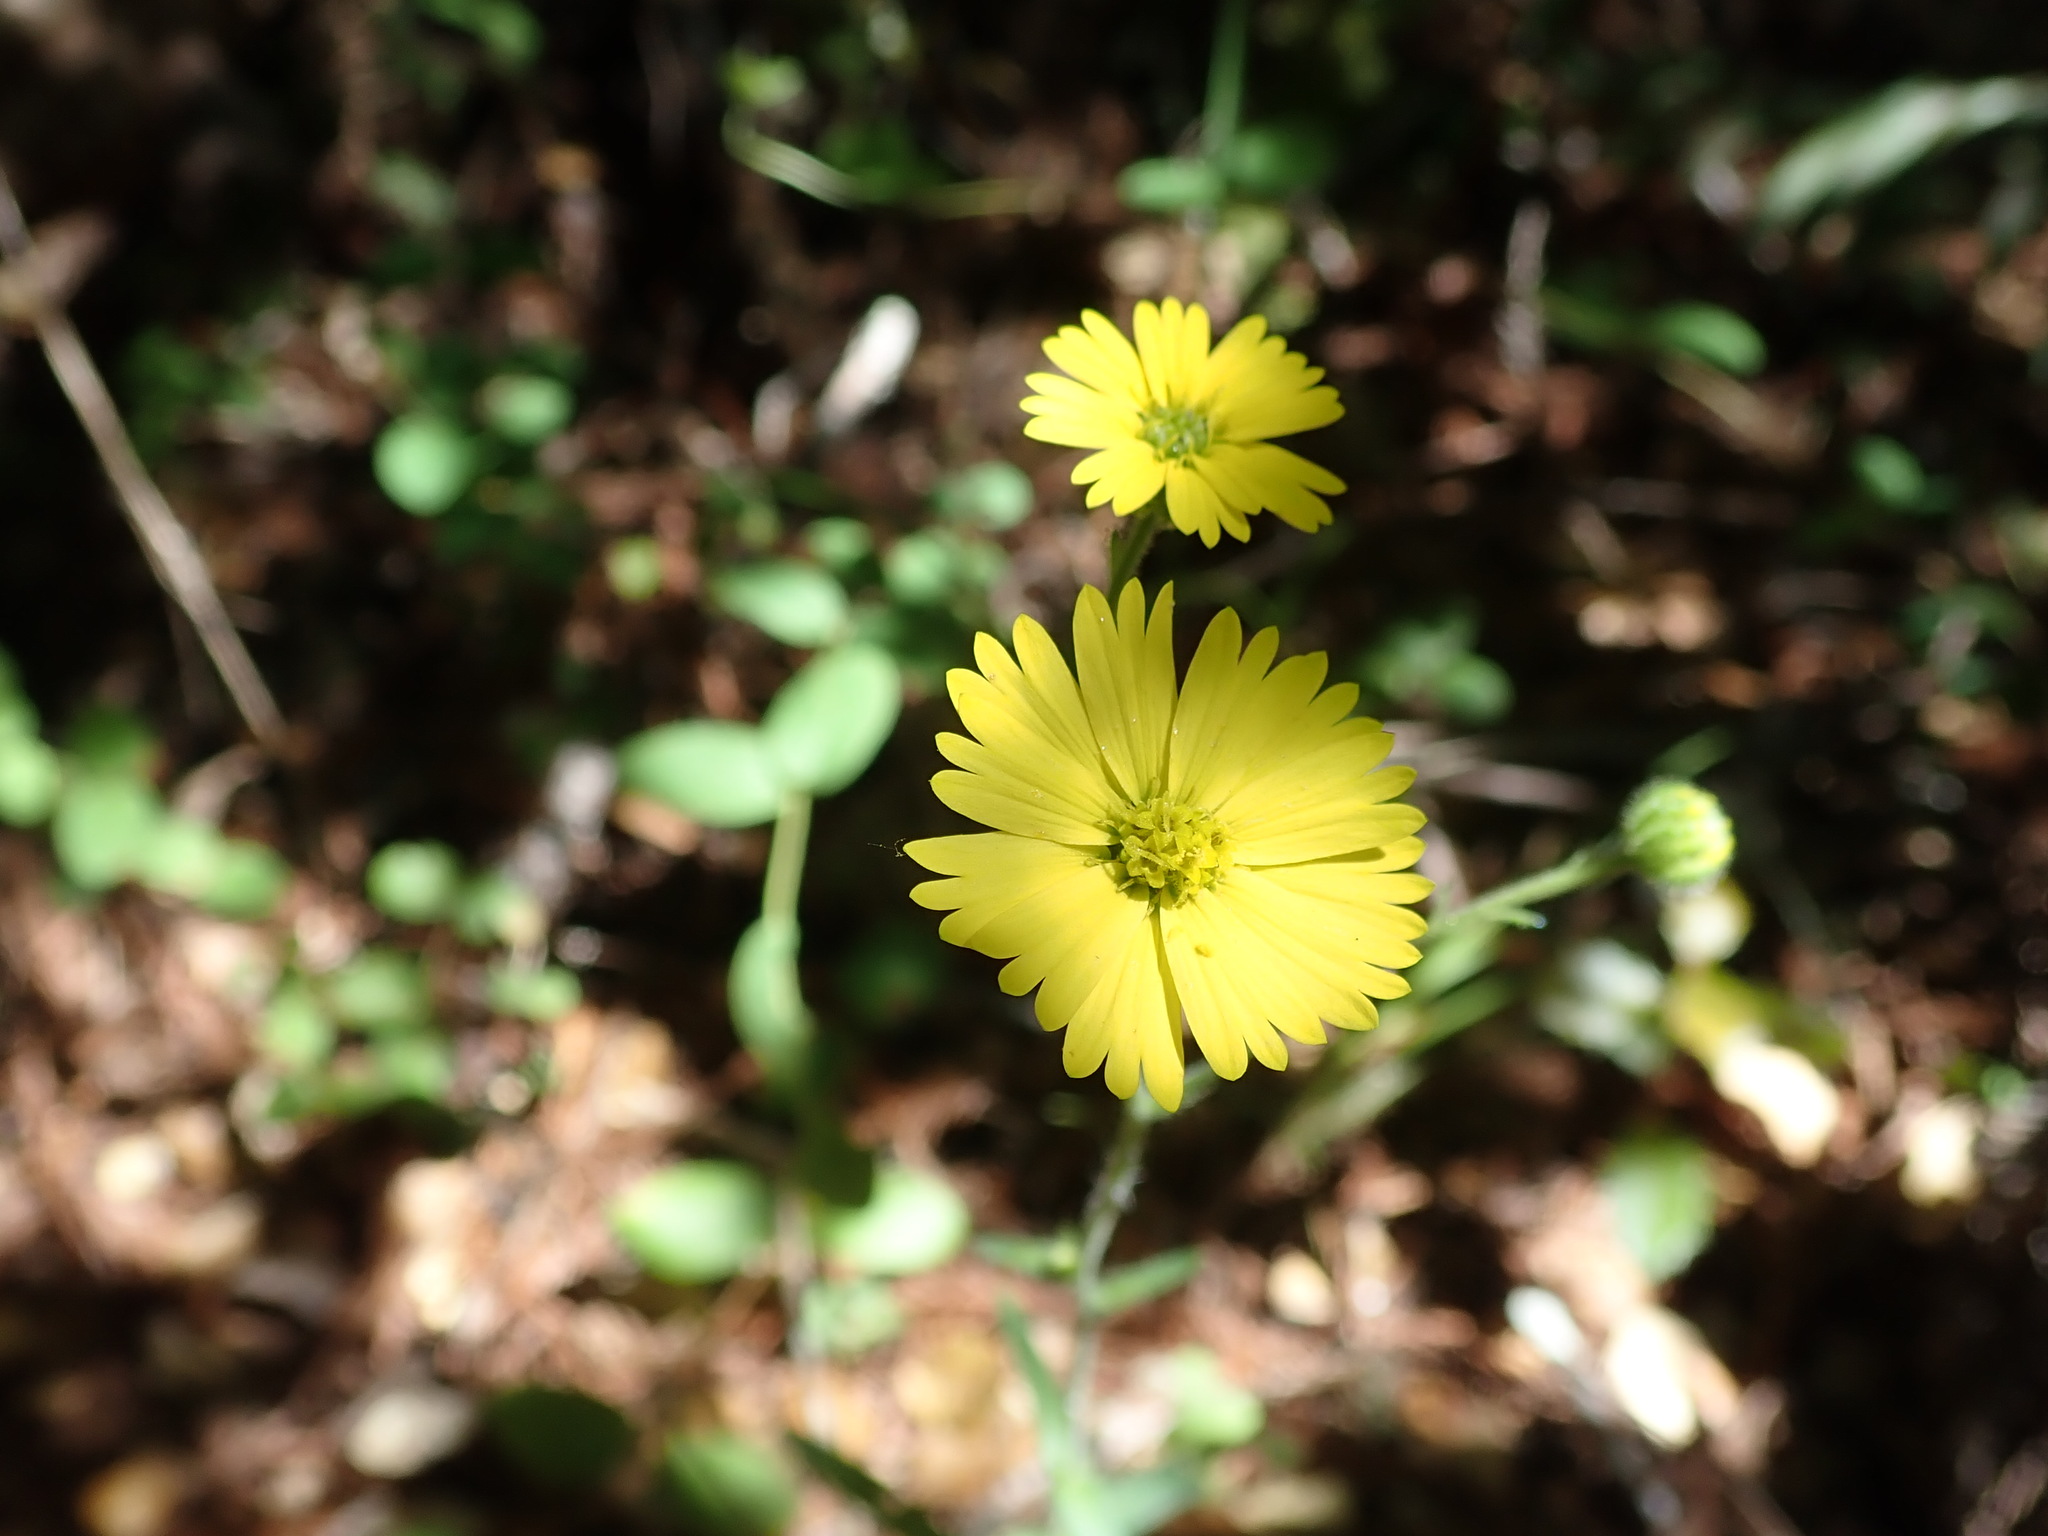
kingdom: Plantae
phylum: Tracheophyta
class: Magnoliopsida
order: Asterales
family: Asteraceae
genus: Anisocarpus
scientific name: Anisocarpus madioides
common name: Woodland madia
